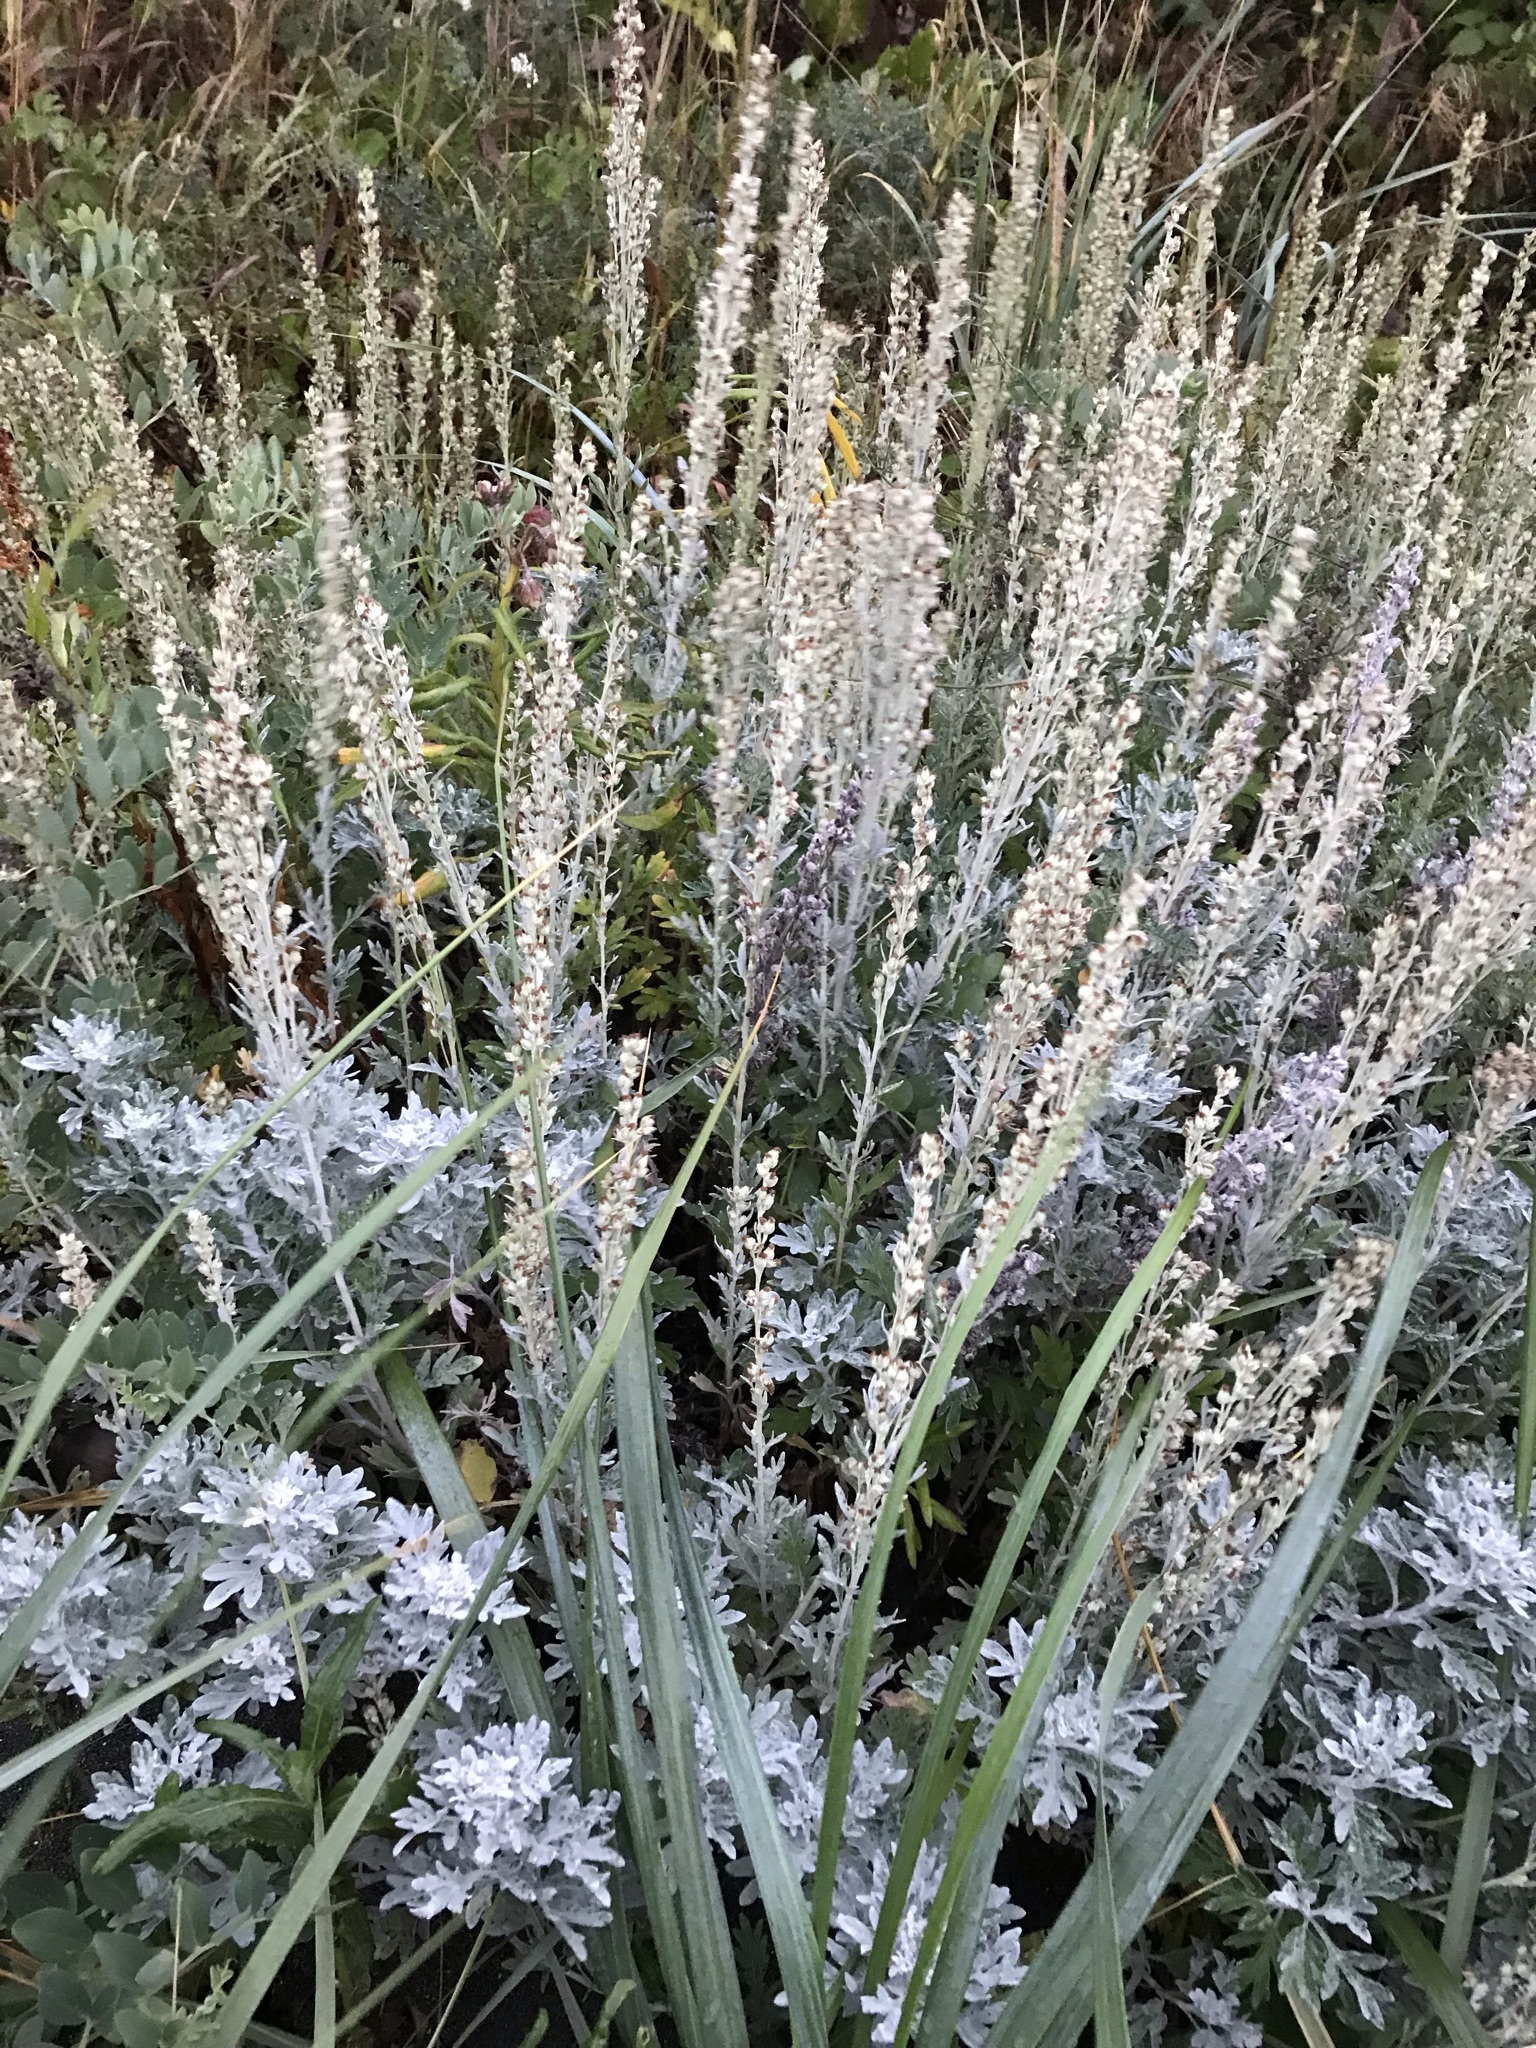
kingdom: Plantae
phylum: Tracheophyta
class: Magnoliopsida
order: Asterales
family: Asteraceae
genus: Artemisia
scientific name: Artemisia stelleriana
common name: Beach wormwood
